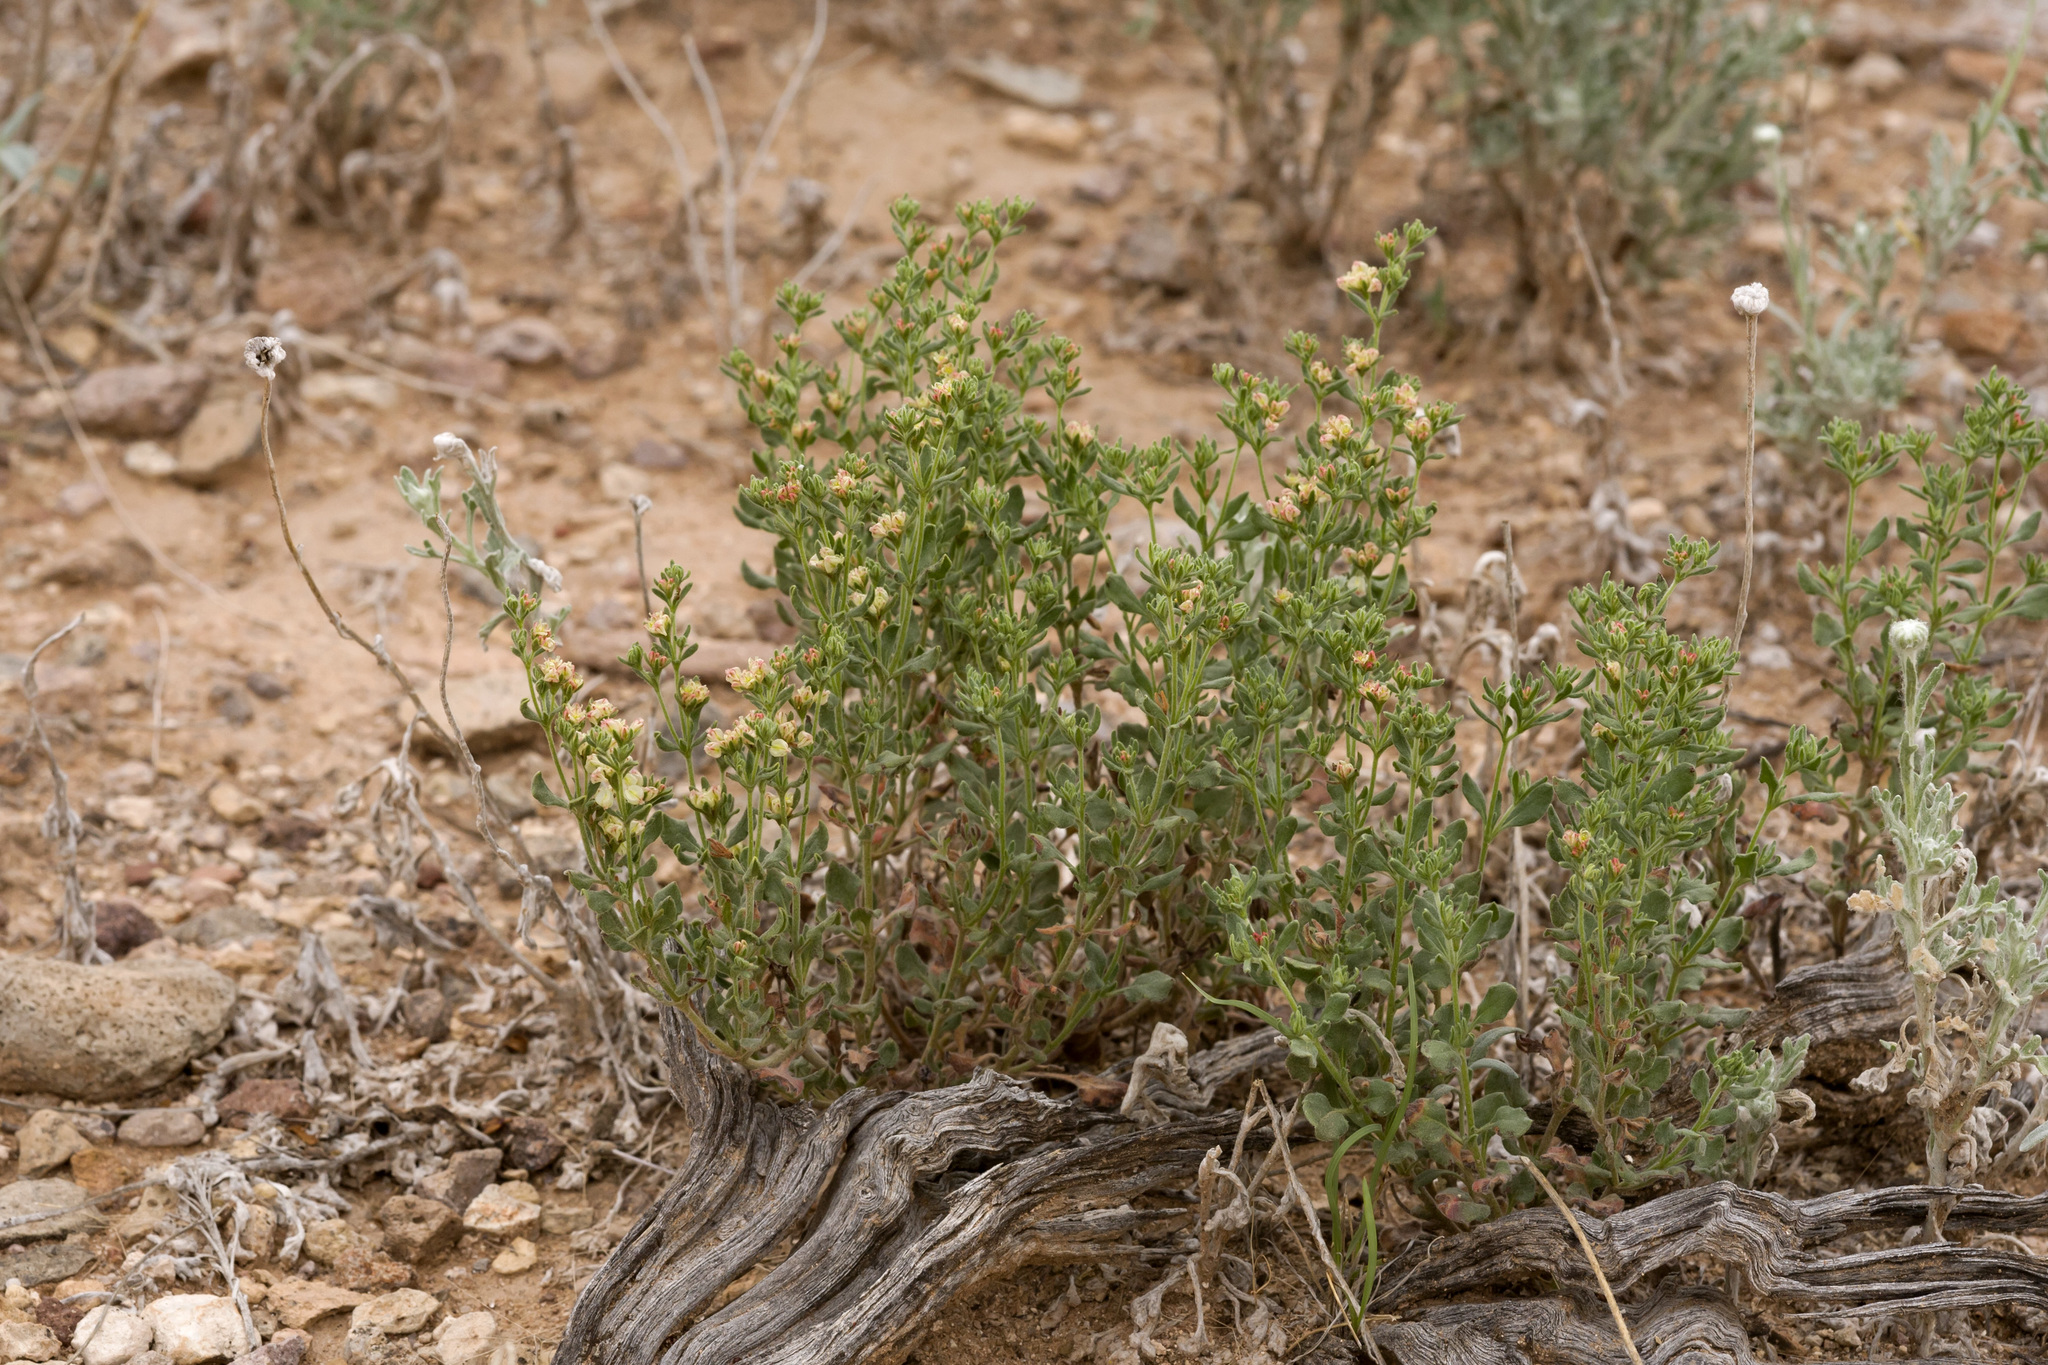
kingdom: Plantae
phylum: Tracheophyta
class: Magnoliopsida
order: Caryophyllales
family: Polygonaceae
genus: Eriogonum
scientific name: Eriogonum abertianum
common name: Abert's wild buckwheat
